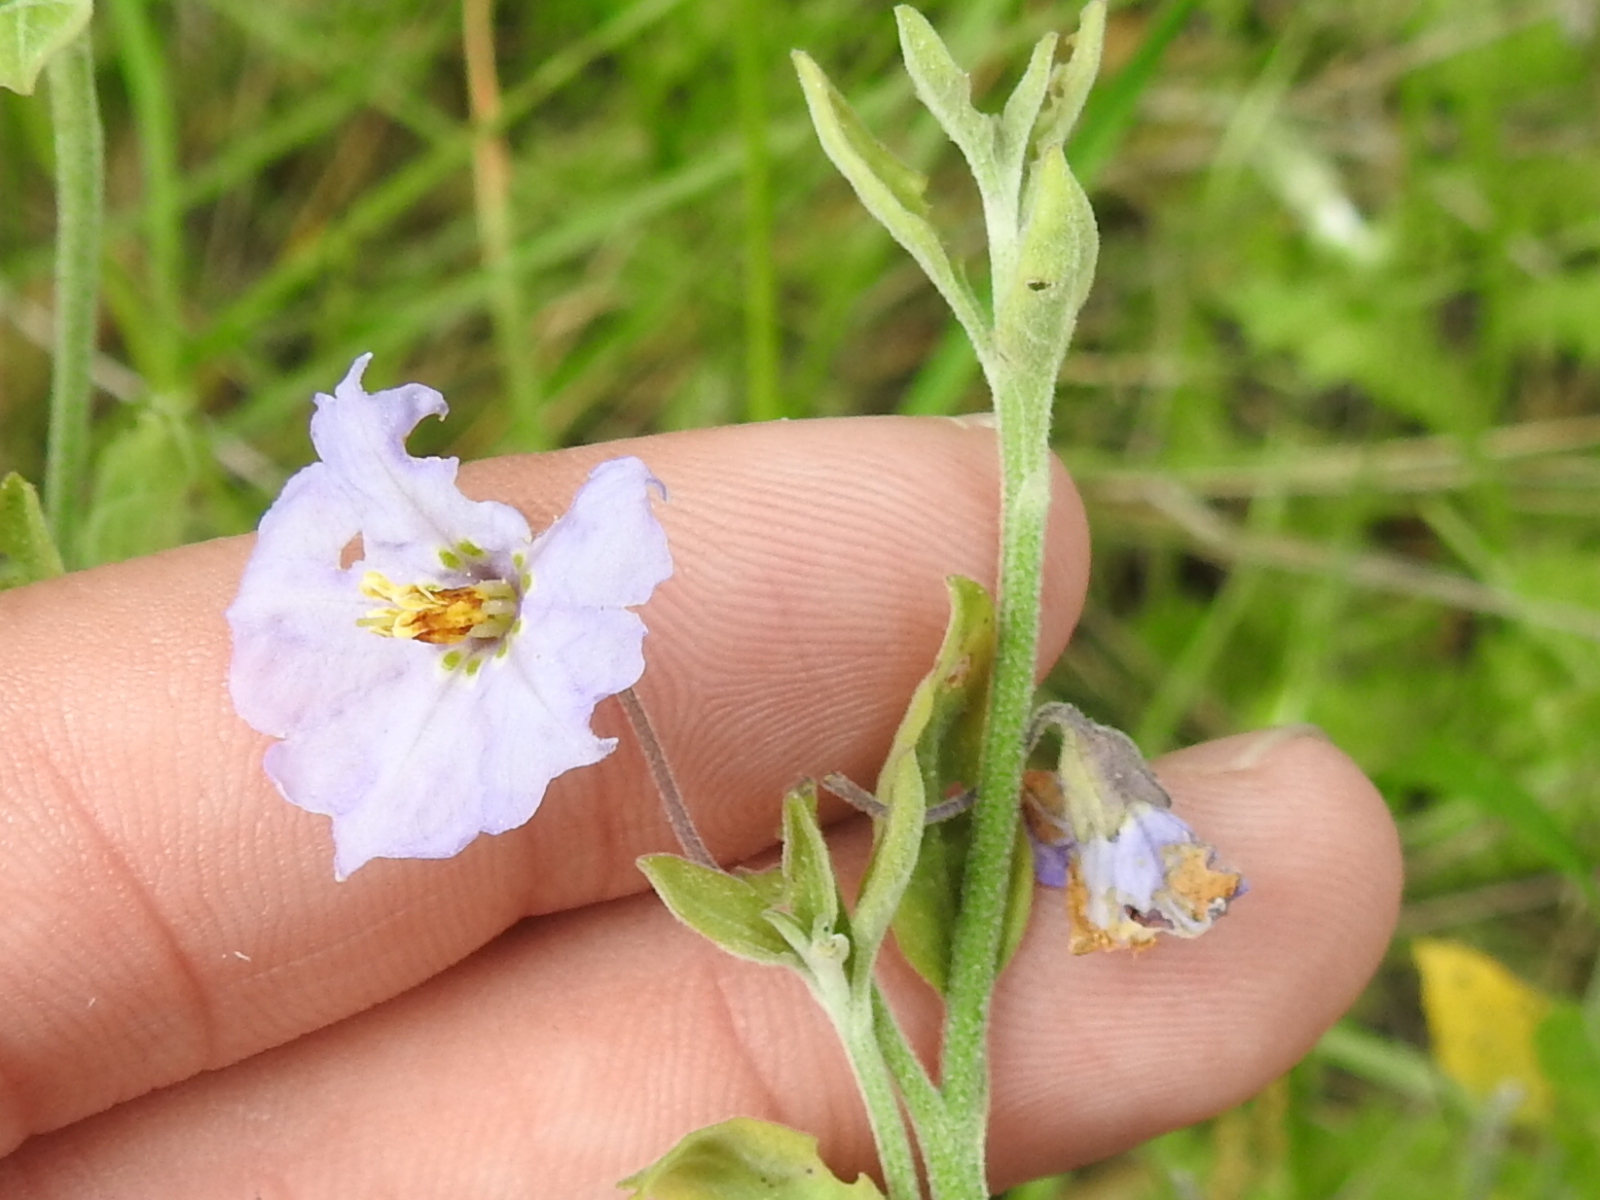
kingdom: Plantae
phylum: Tracheophyta
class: Magnoliopsida
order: Solanales
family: Solanaceae
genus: Solanum
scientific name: Solanum umbelliferum
